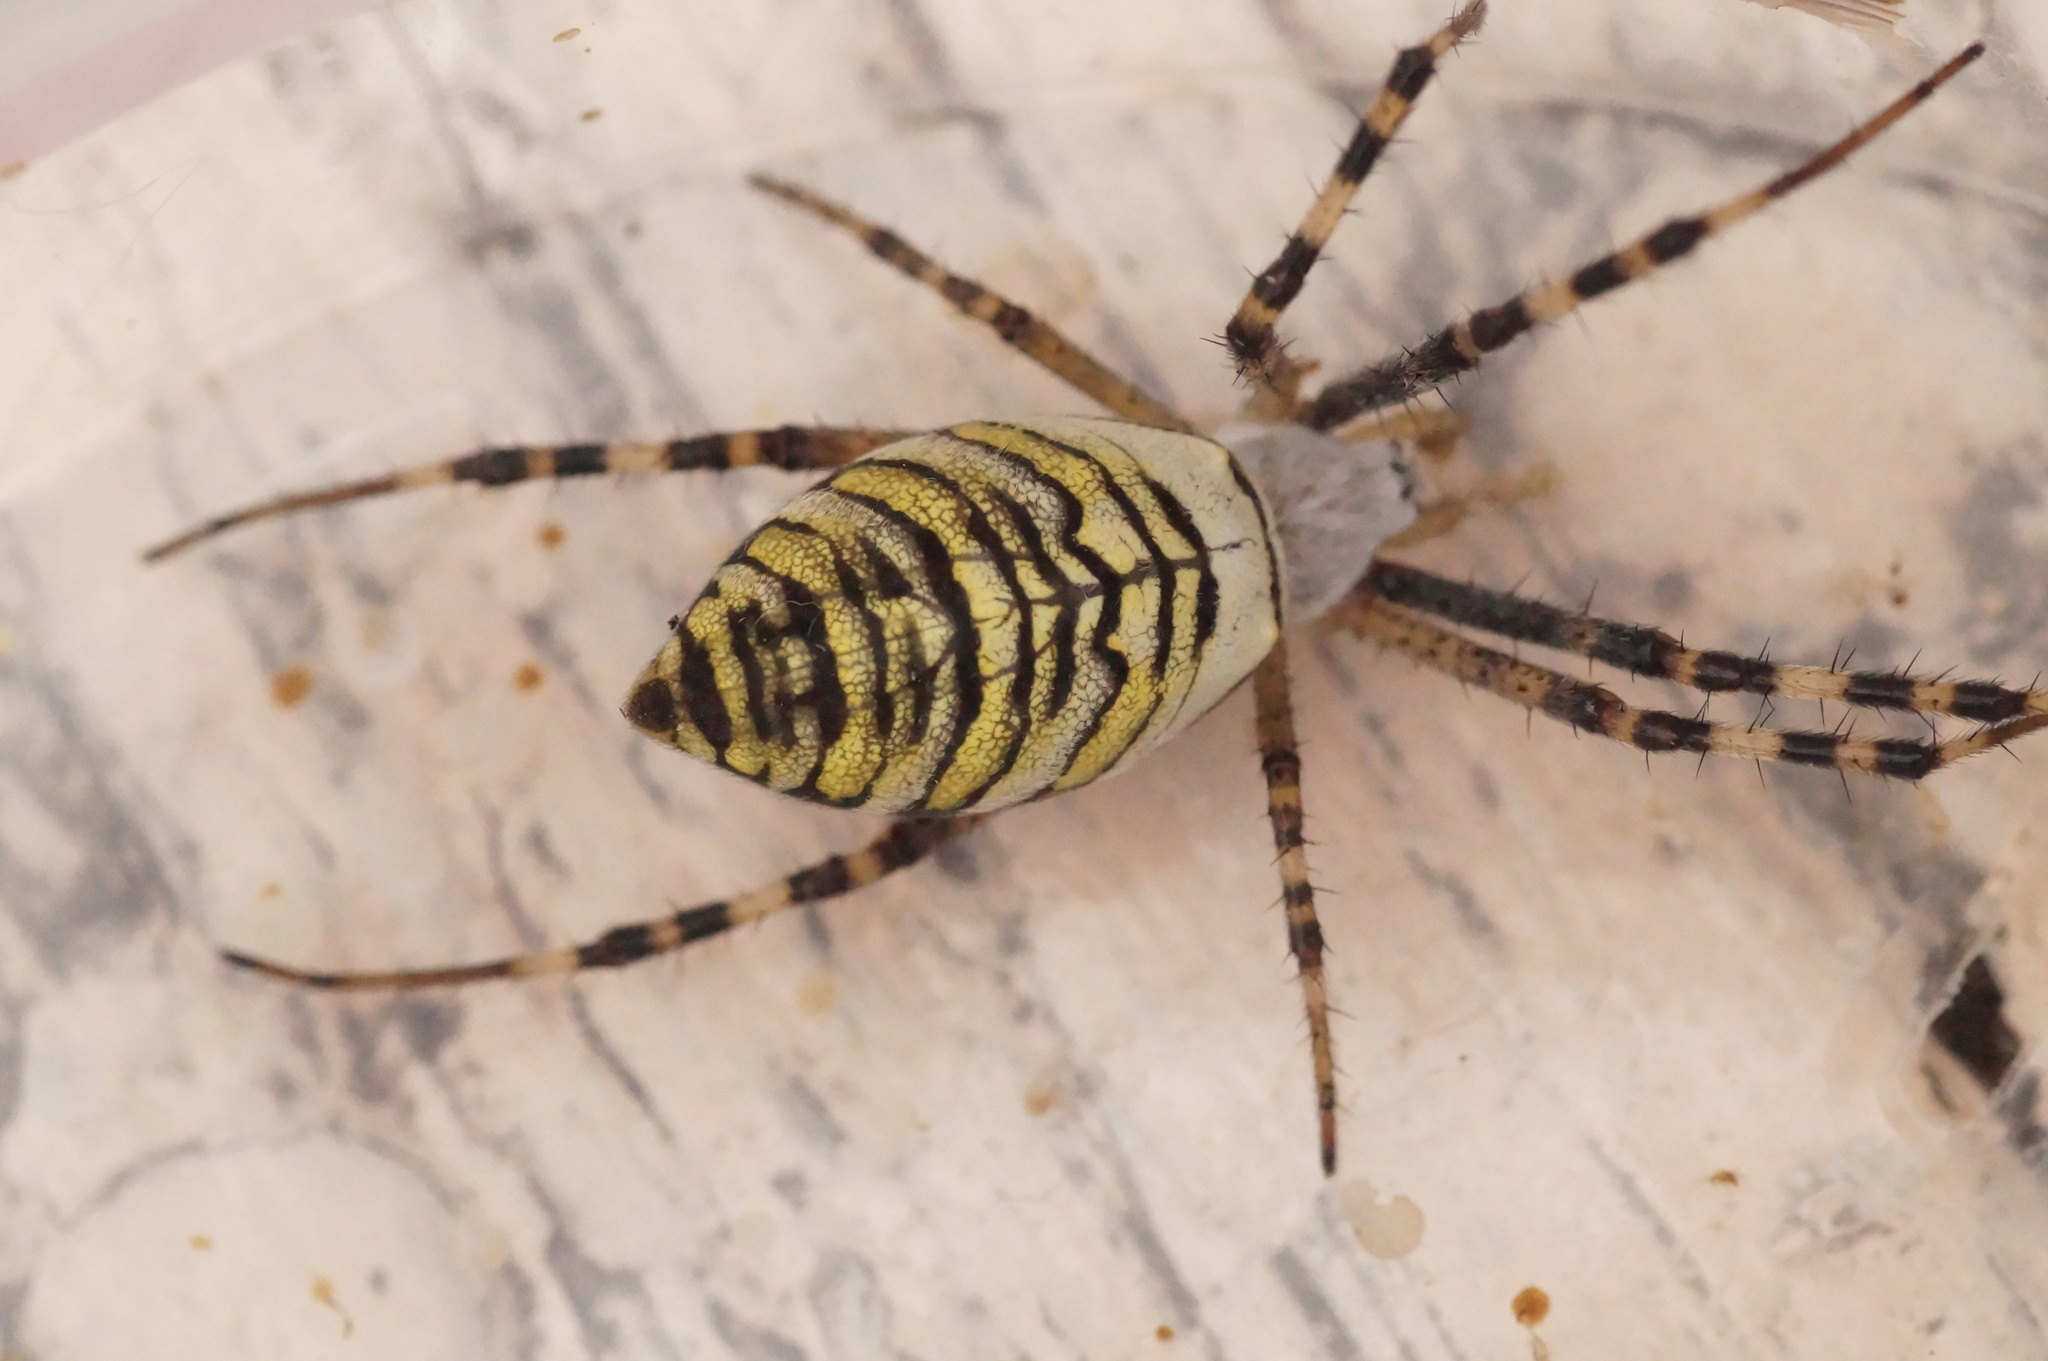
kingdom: Animalia
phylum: Arthropoda
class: Arachnida
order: Araneae
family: Araneidae
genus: Argiope
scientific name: Argiope bruennichi
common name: Wasp spider
